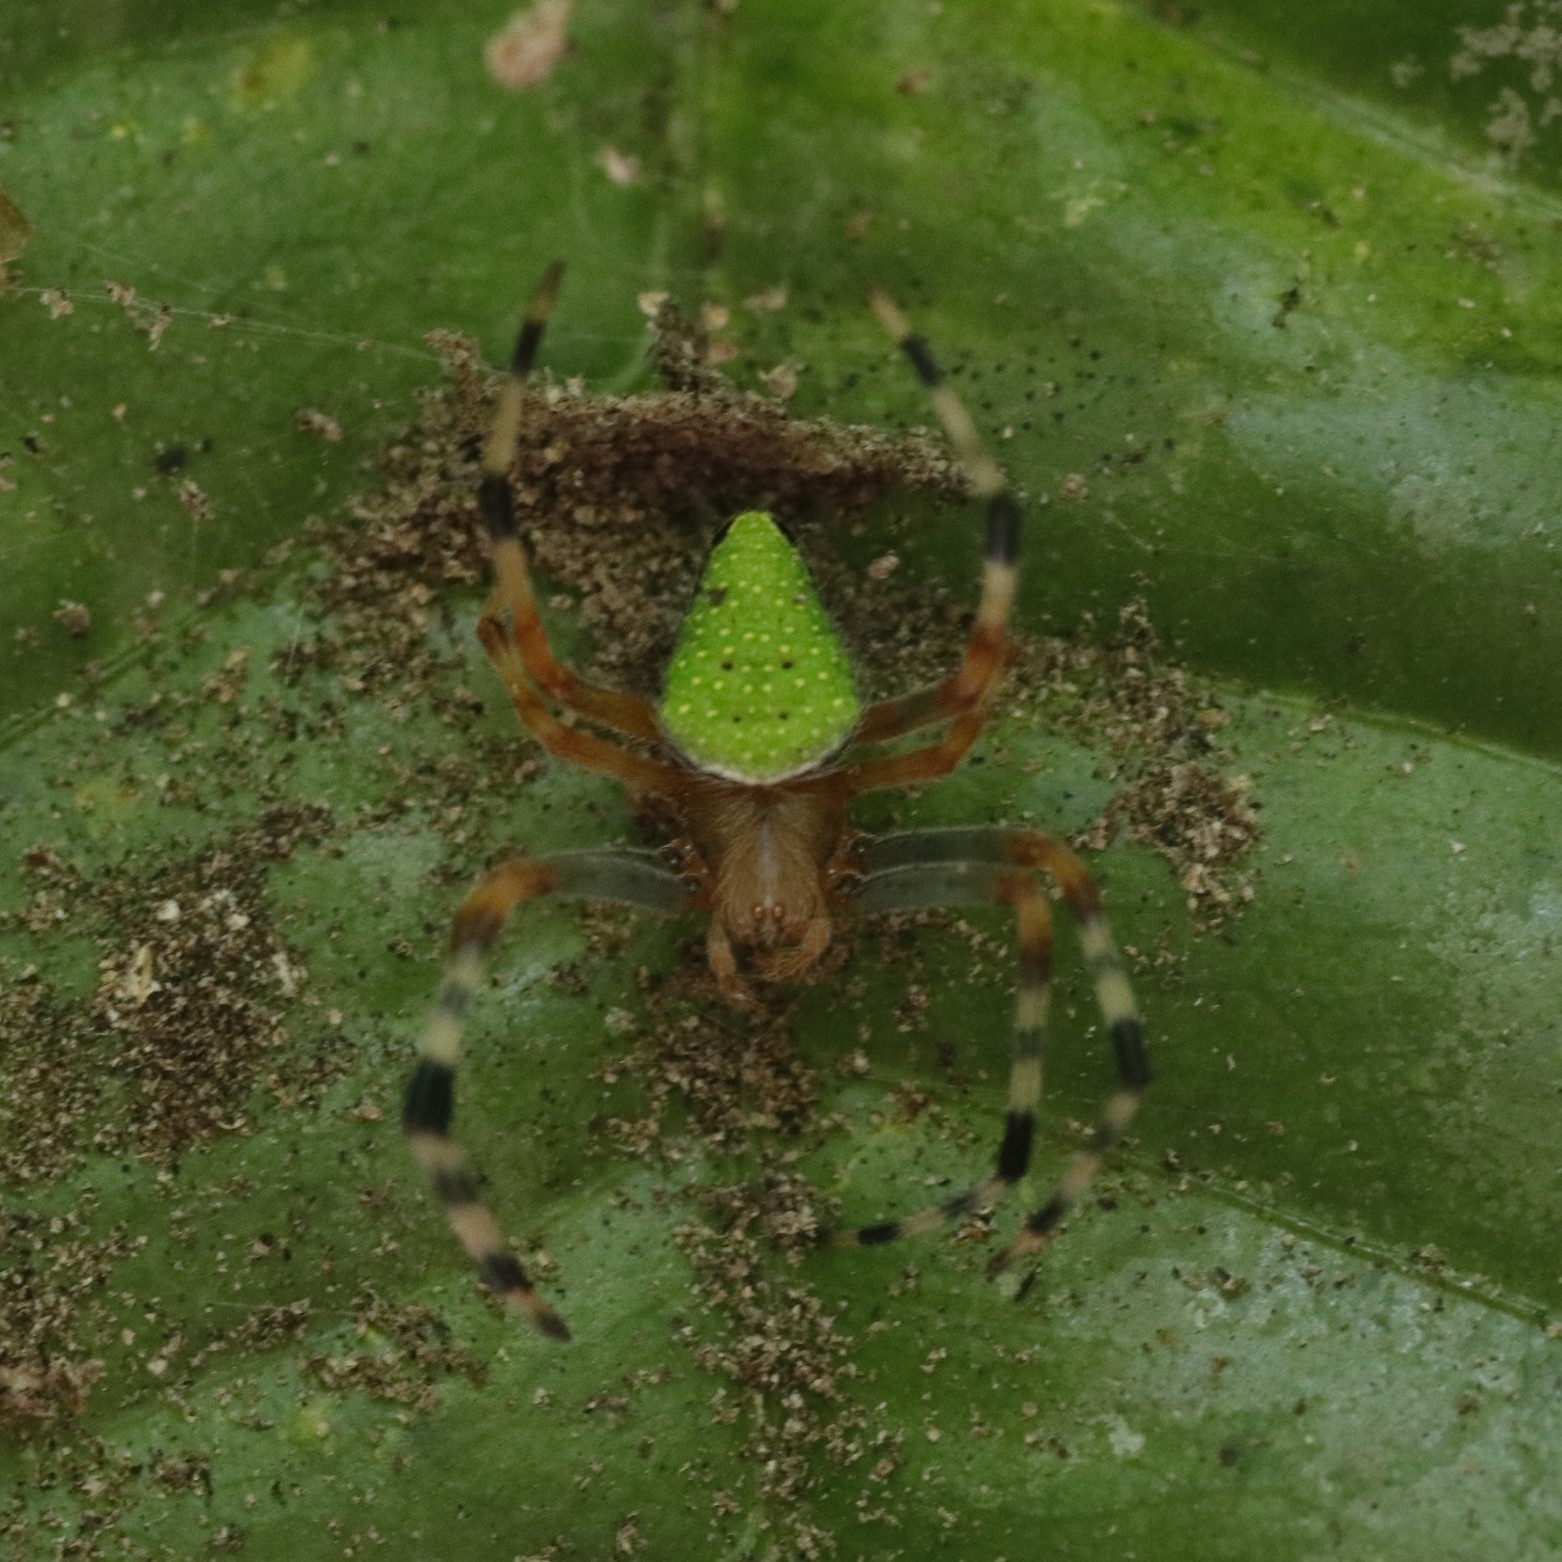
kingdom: Animalia
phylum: Arthropoda
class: Arachnida
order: Araneae
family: Araneidae
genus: Eriophora
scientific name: Eriophora nephiloides
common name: Orb weavers
